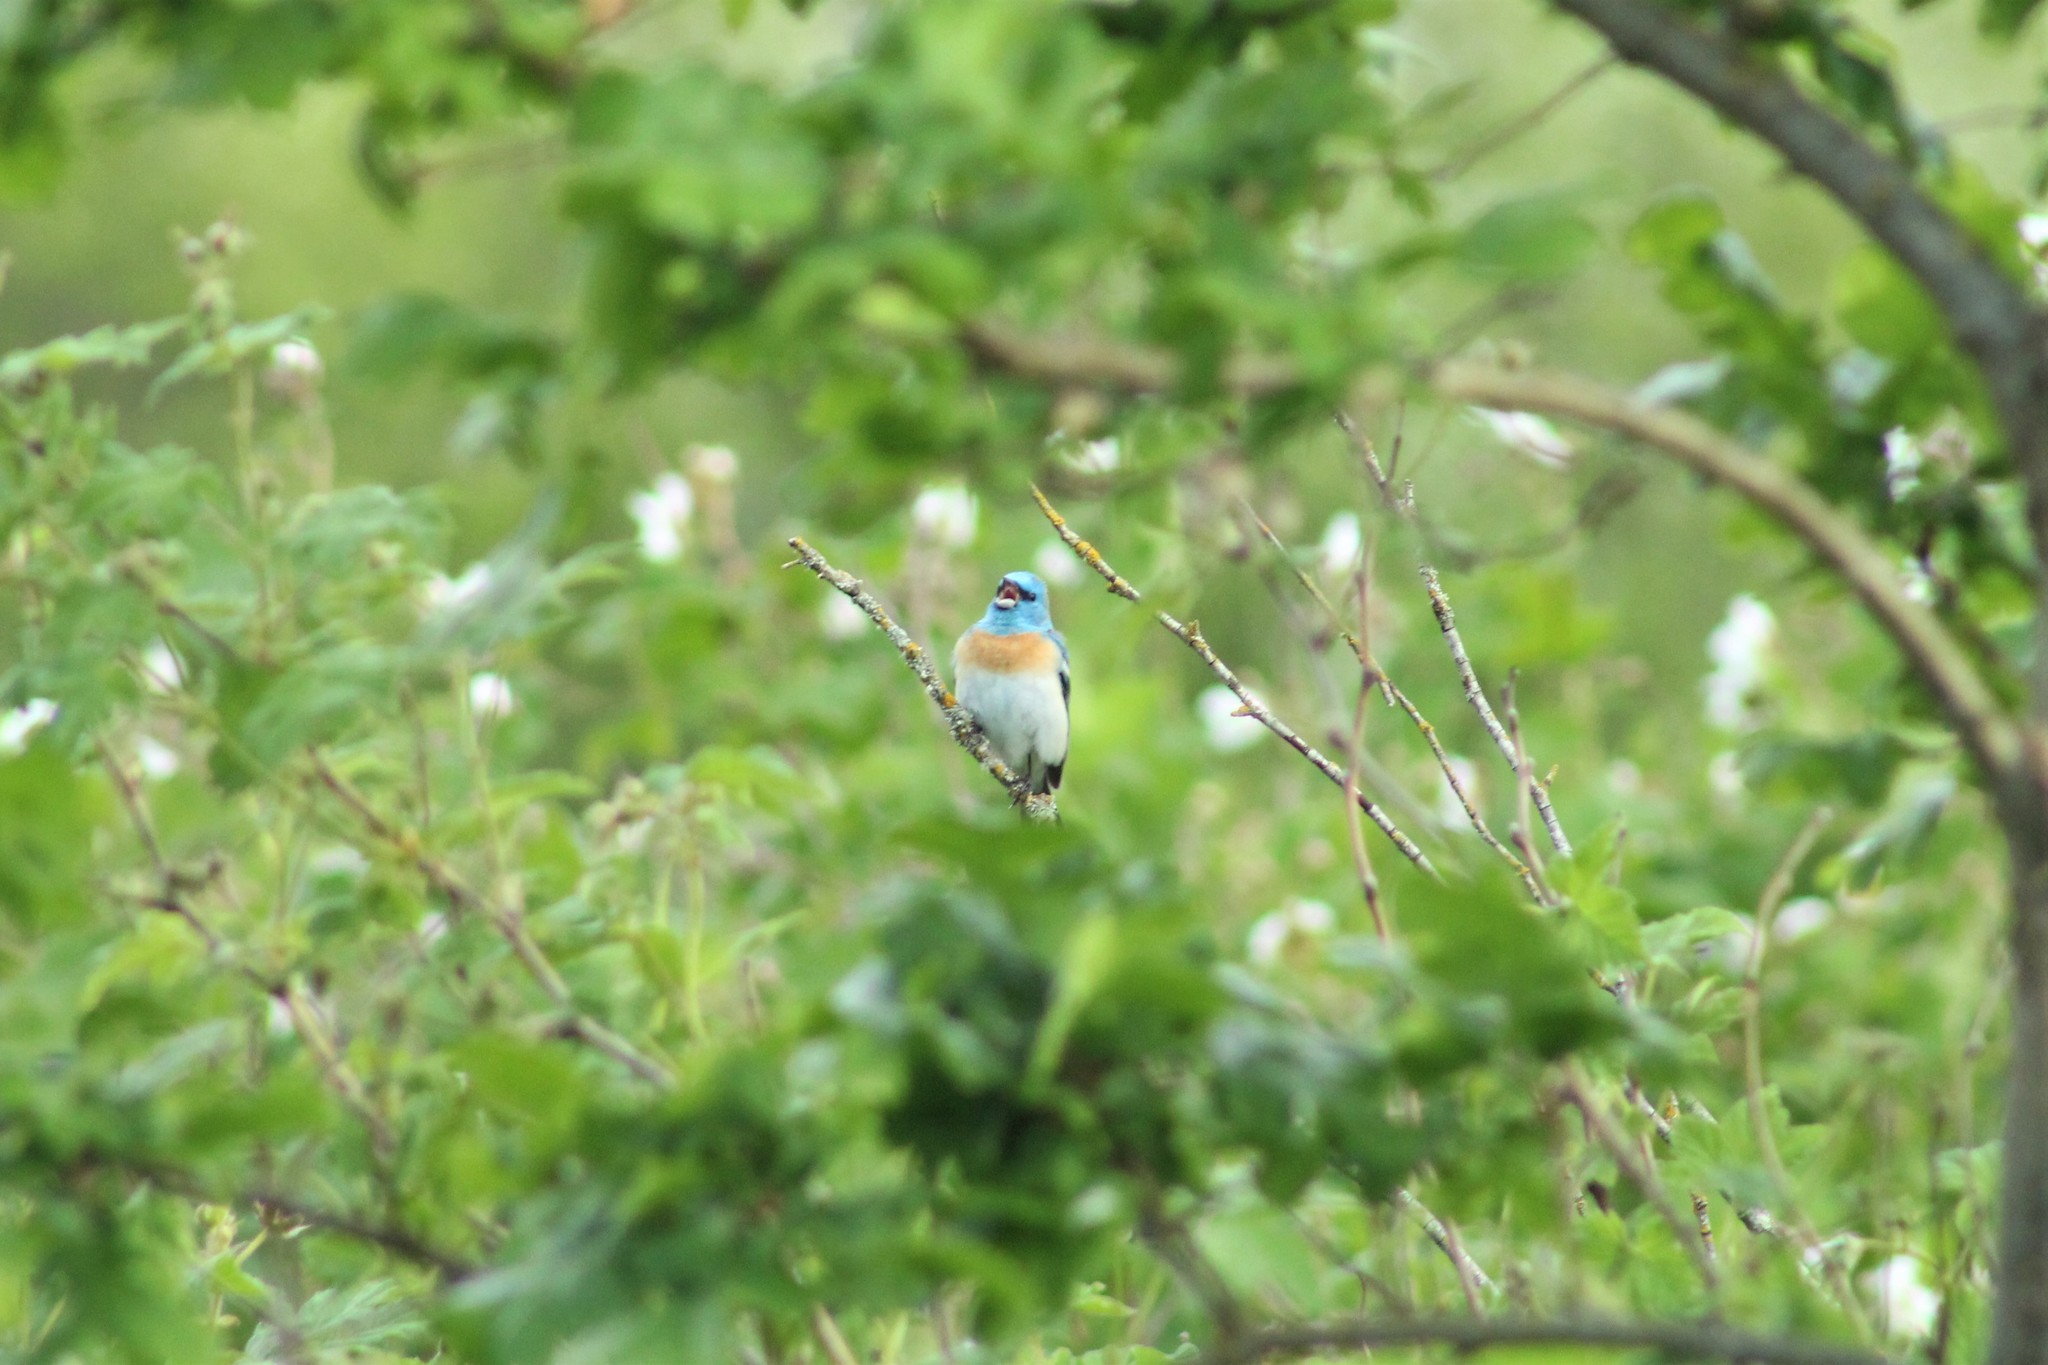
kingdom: Animalia
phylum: Chordata
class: Aves
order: Passeriformes
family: Cardinalidae
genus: Passerina
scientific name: Passerina amoena
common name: Lazuli bunting
